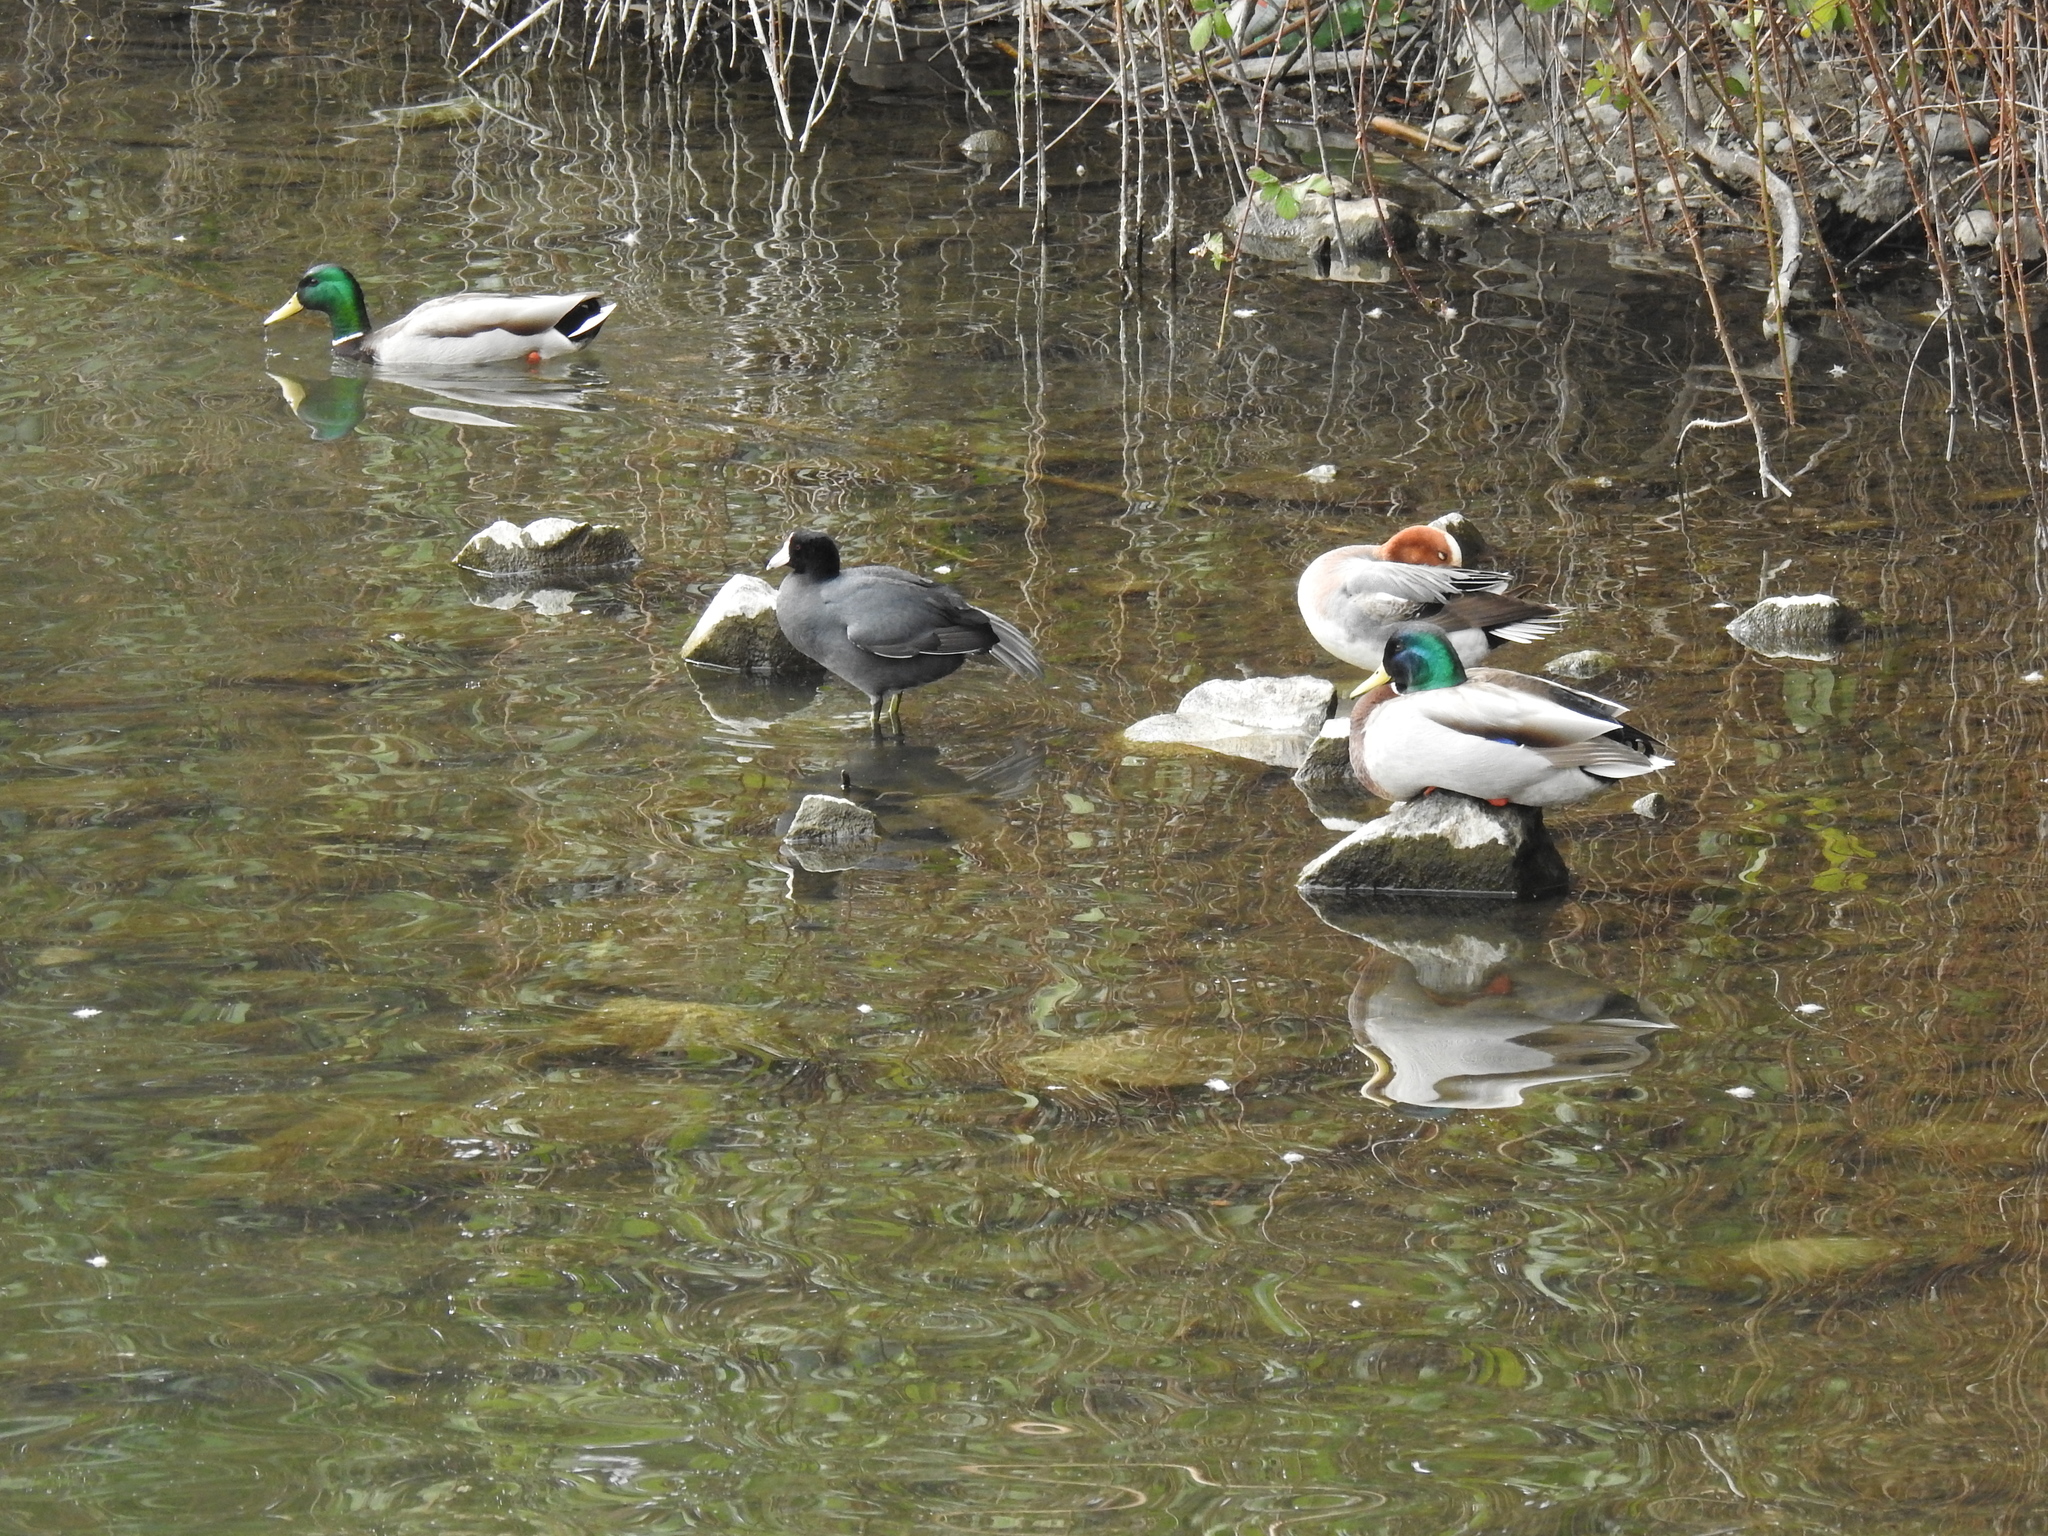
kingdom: Animalia
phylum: Chordata
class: Aves
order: Anseriformes
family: Anatidae
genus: Anas
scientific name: Anas platyrhynchos
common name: Mallard
